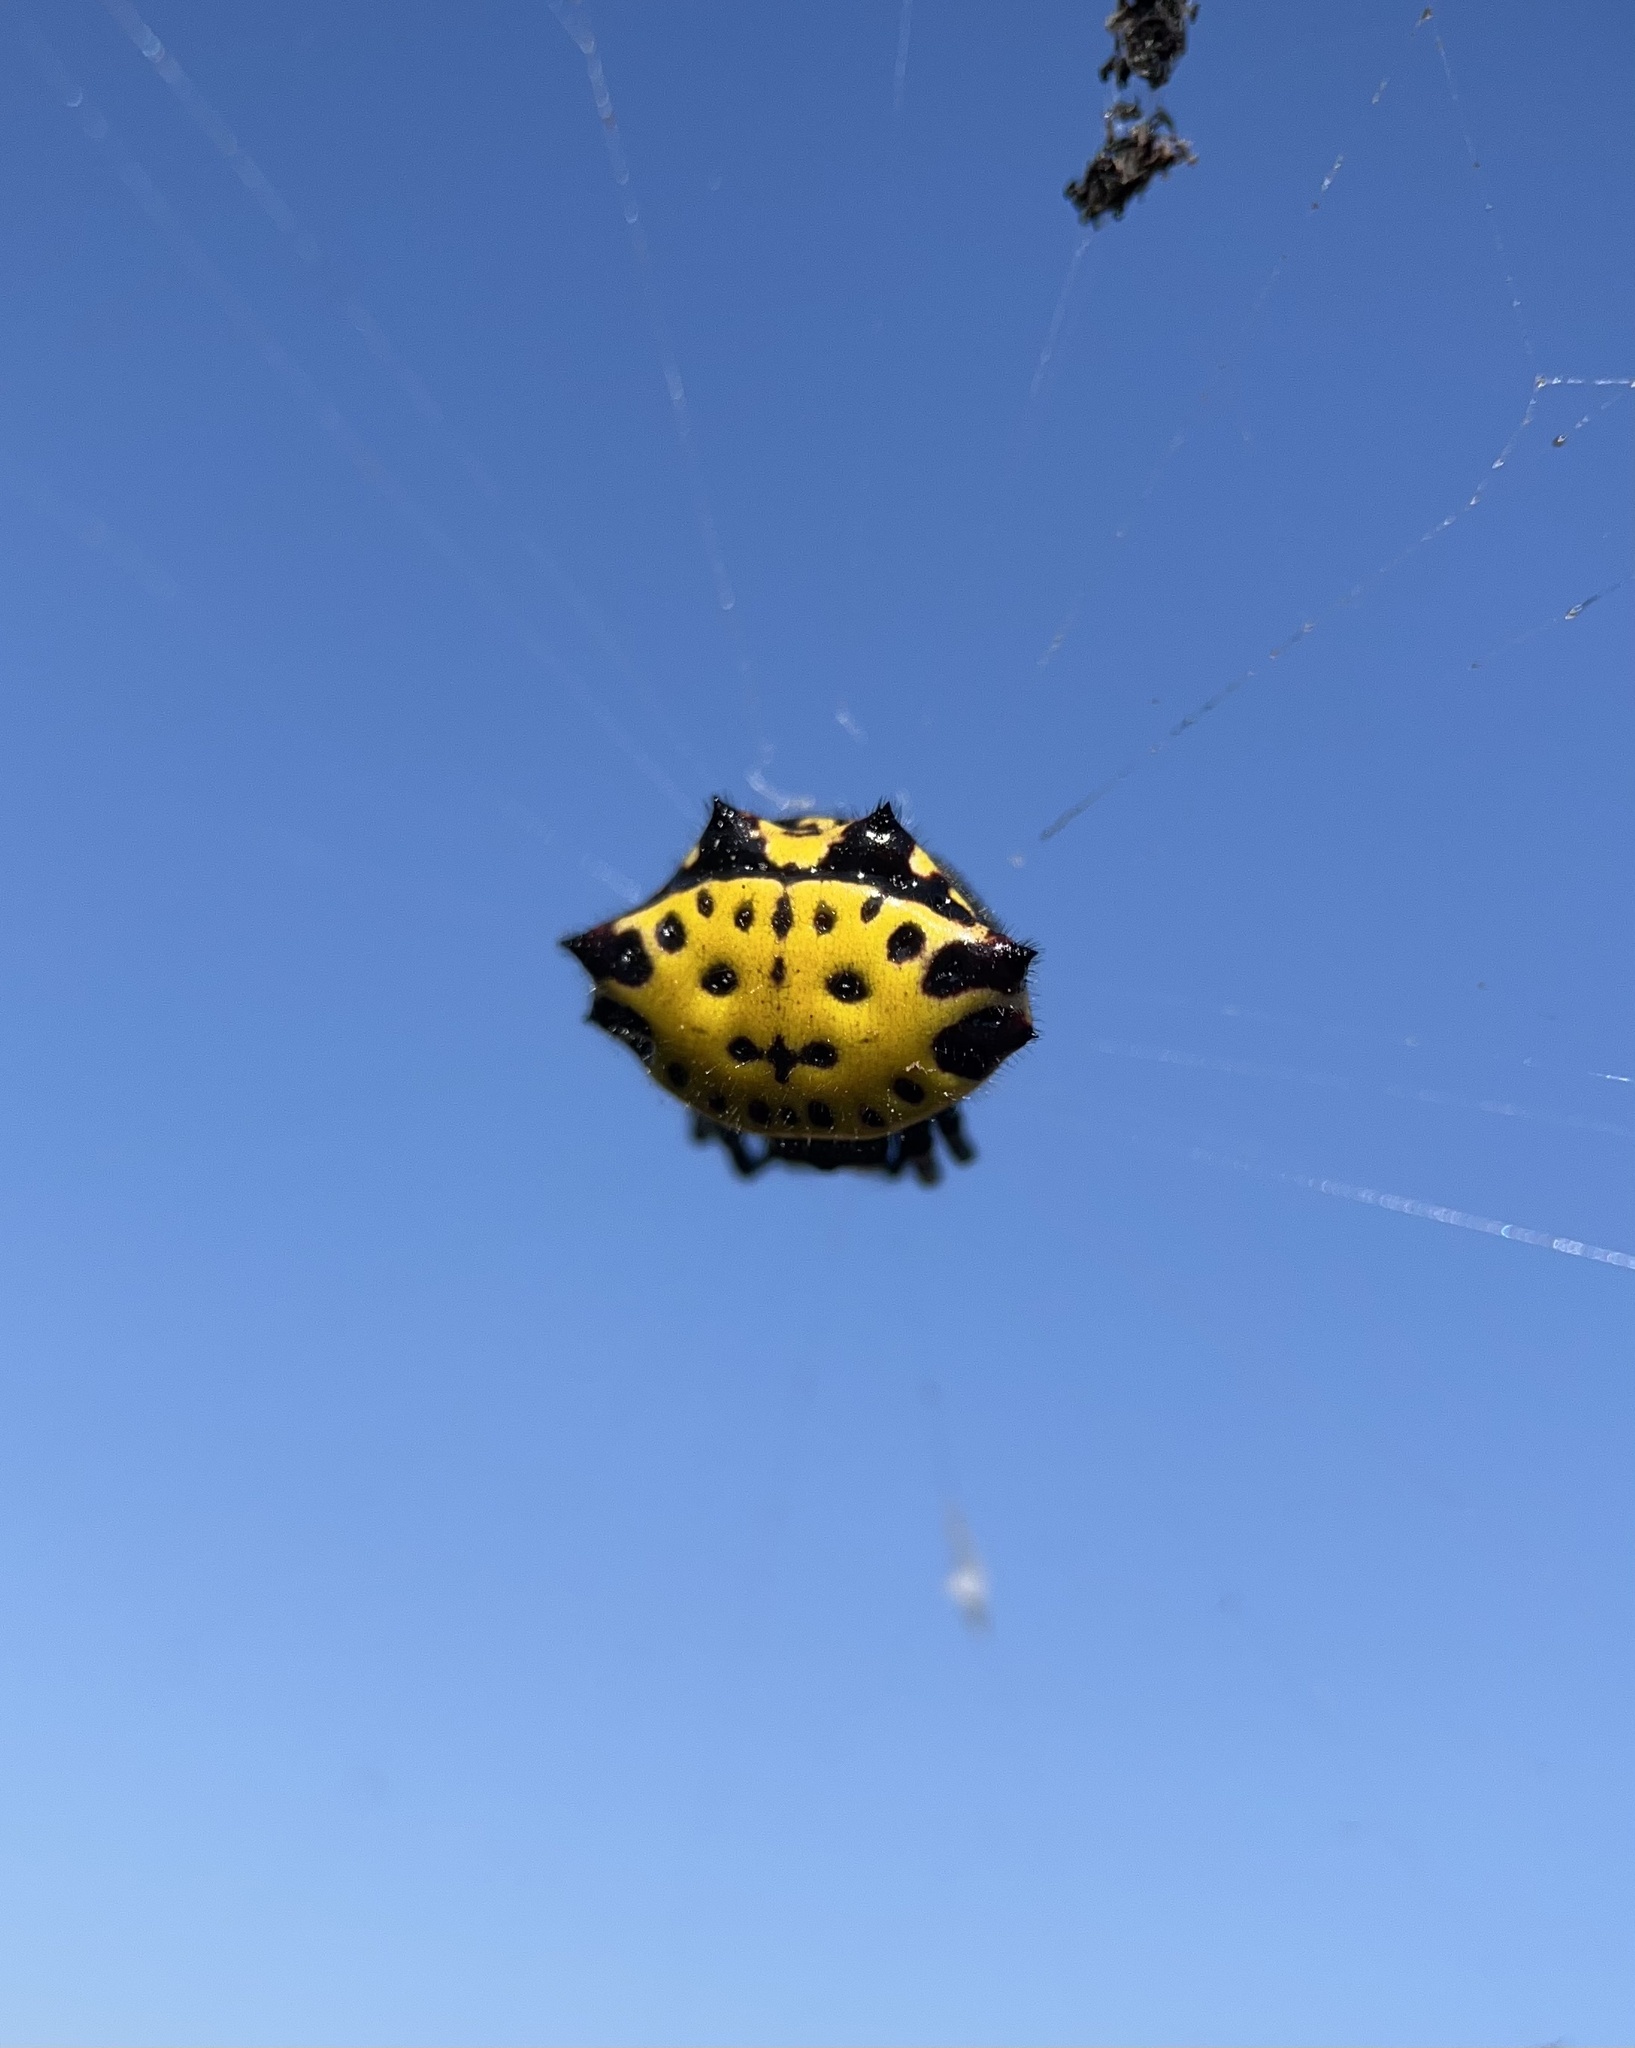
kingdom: Animalia
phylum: Arthropoda
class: Arachnida
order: Araneae
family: Araneidae
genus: Gasteracantha
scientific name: Gasteracantha cancriformis
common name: Orb weavers
